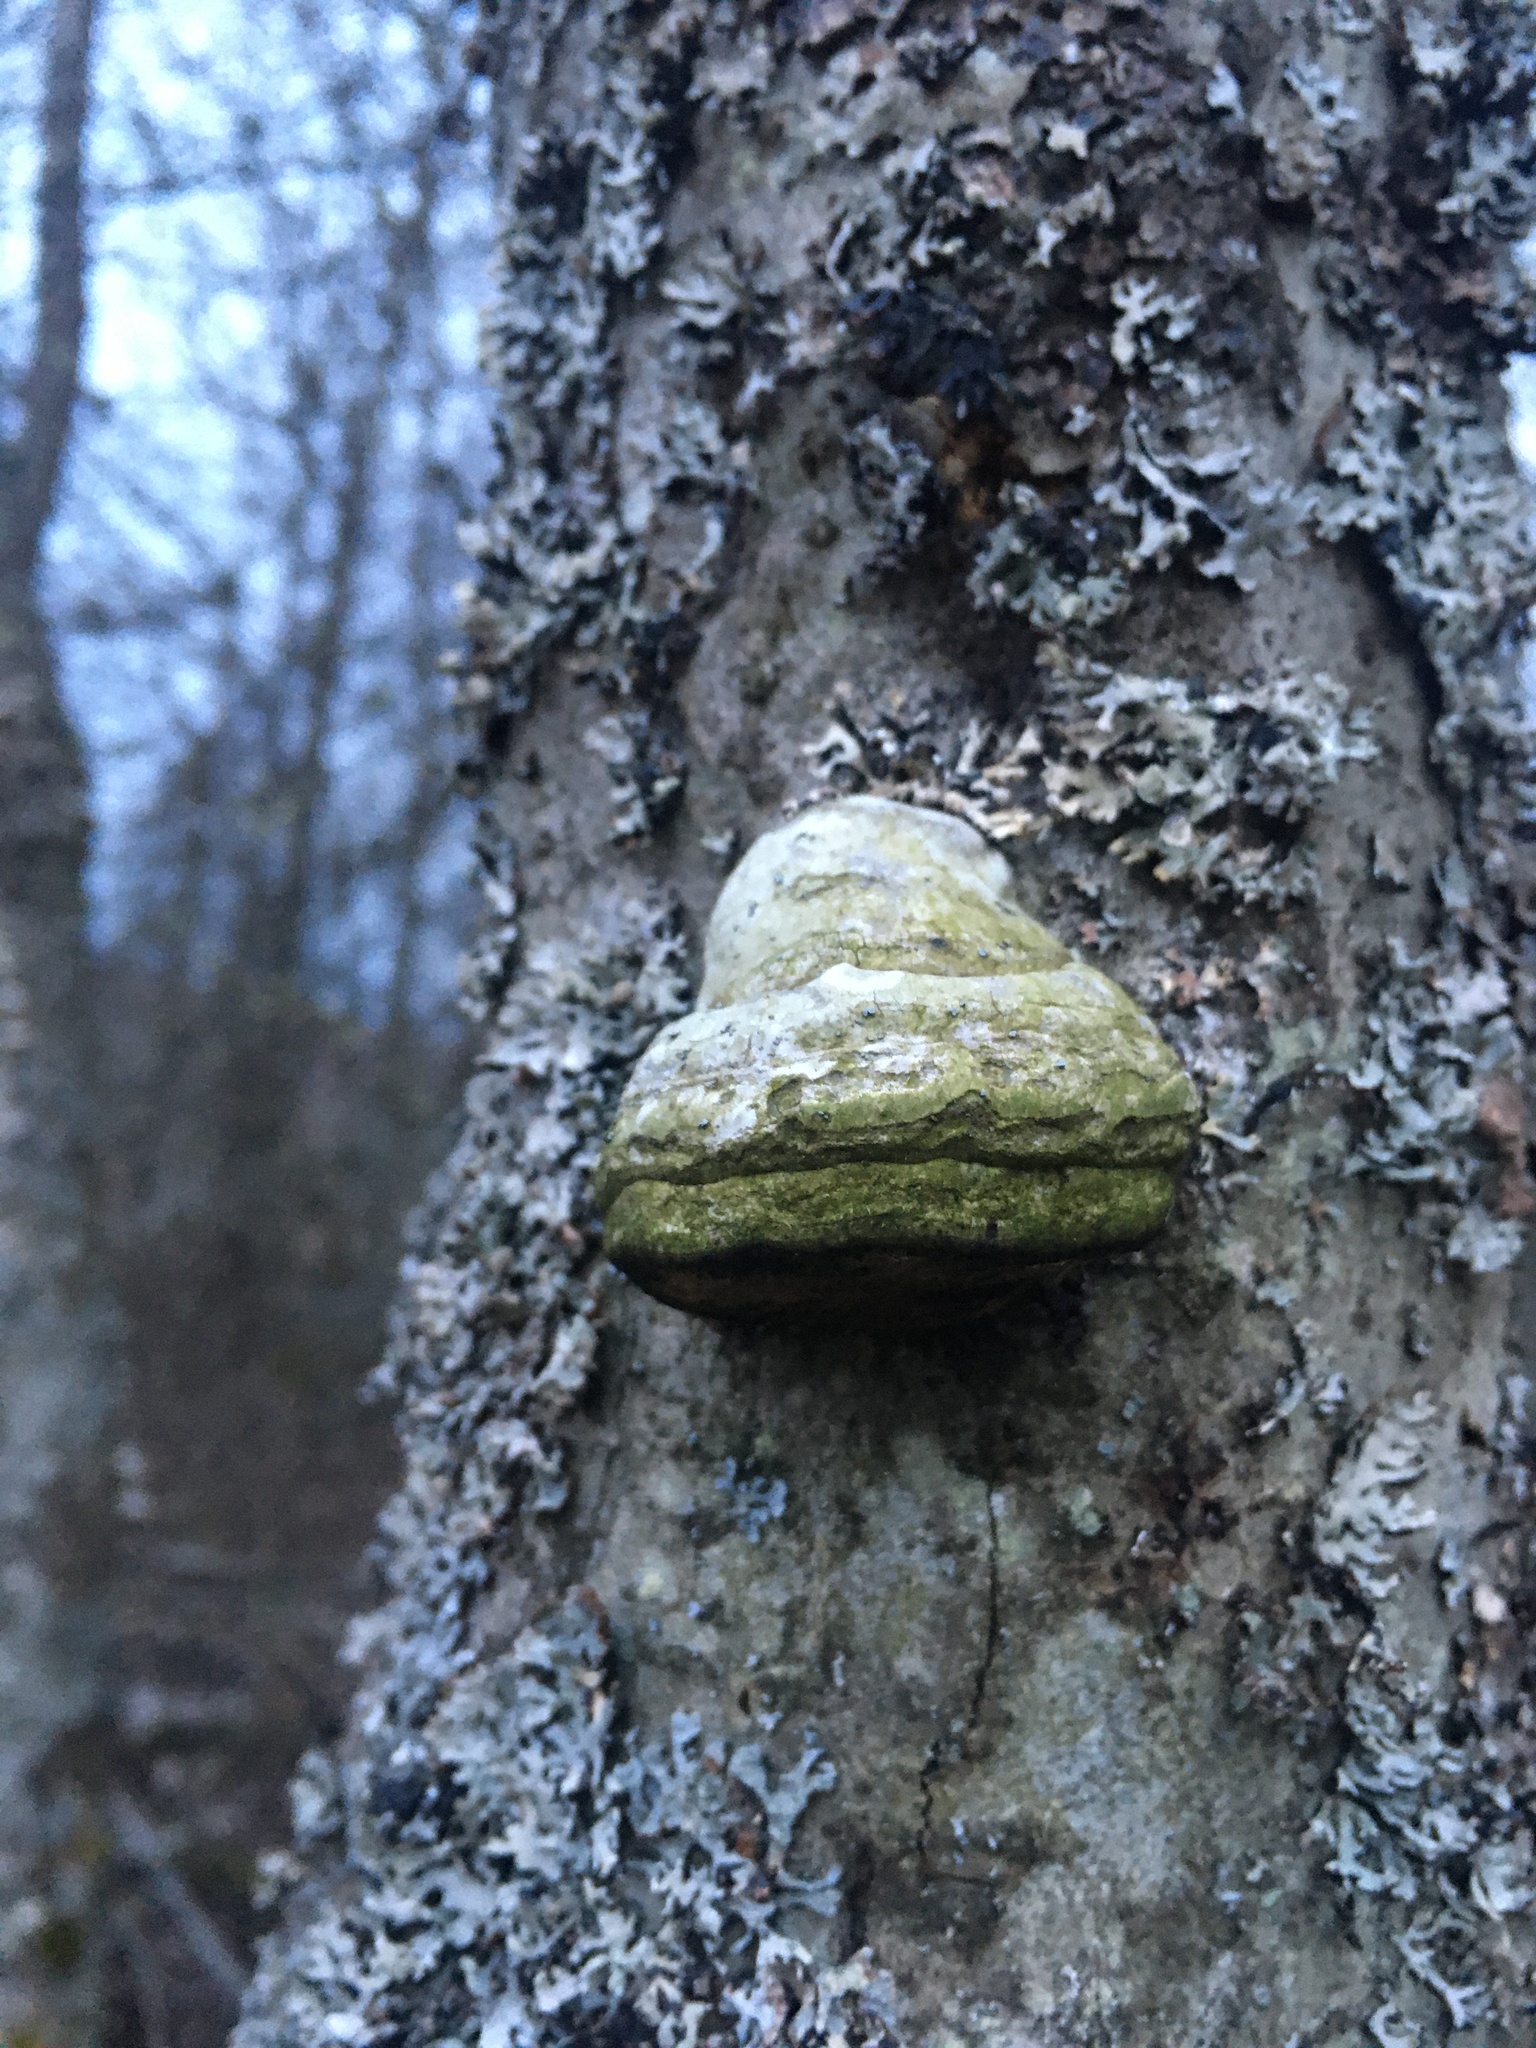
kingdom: Fungi
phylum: Basidiomycota
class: Agaricomycetes
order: Polyporales
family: Polyporaceae
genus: Fomes
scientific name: Fomes fomentarius
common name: Hoof fungus
